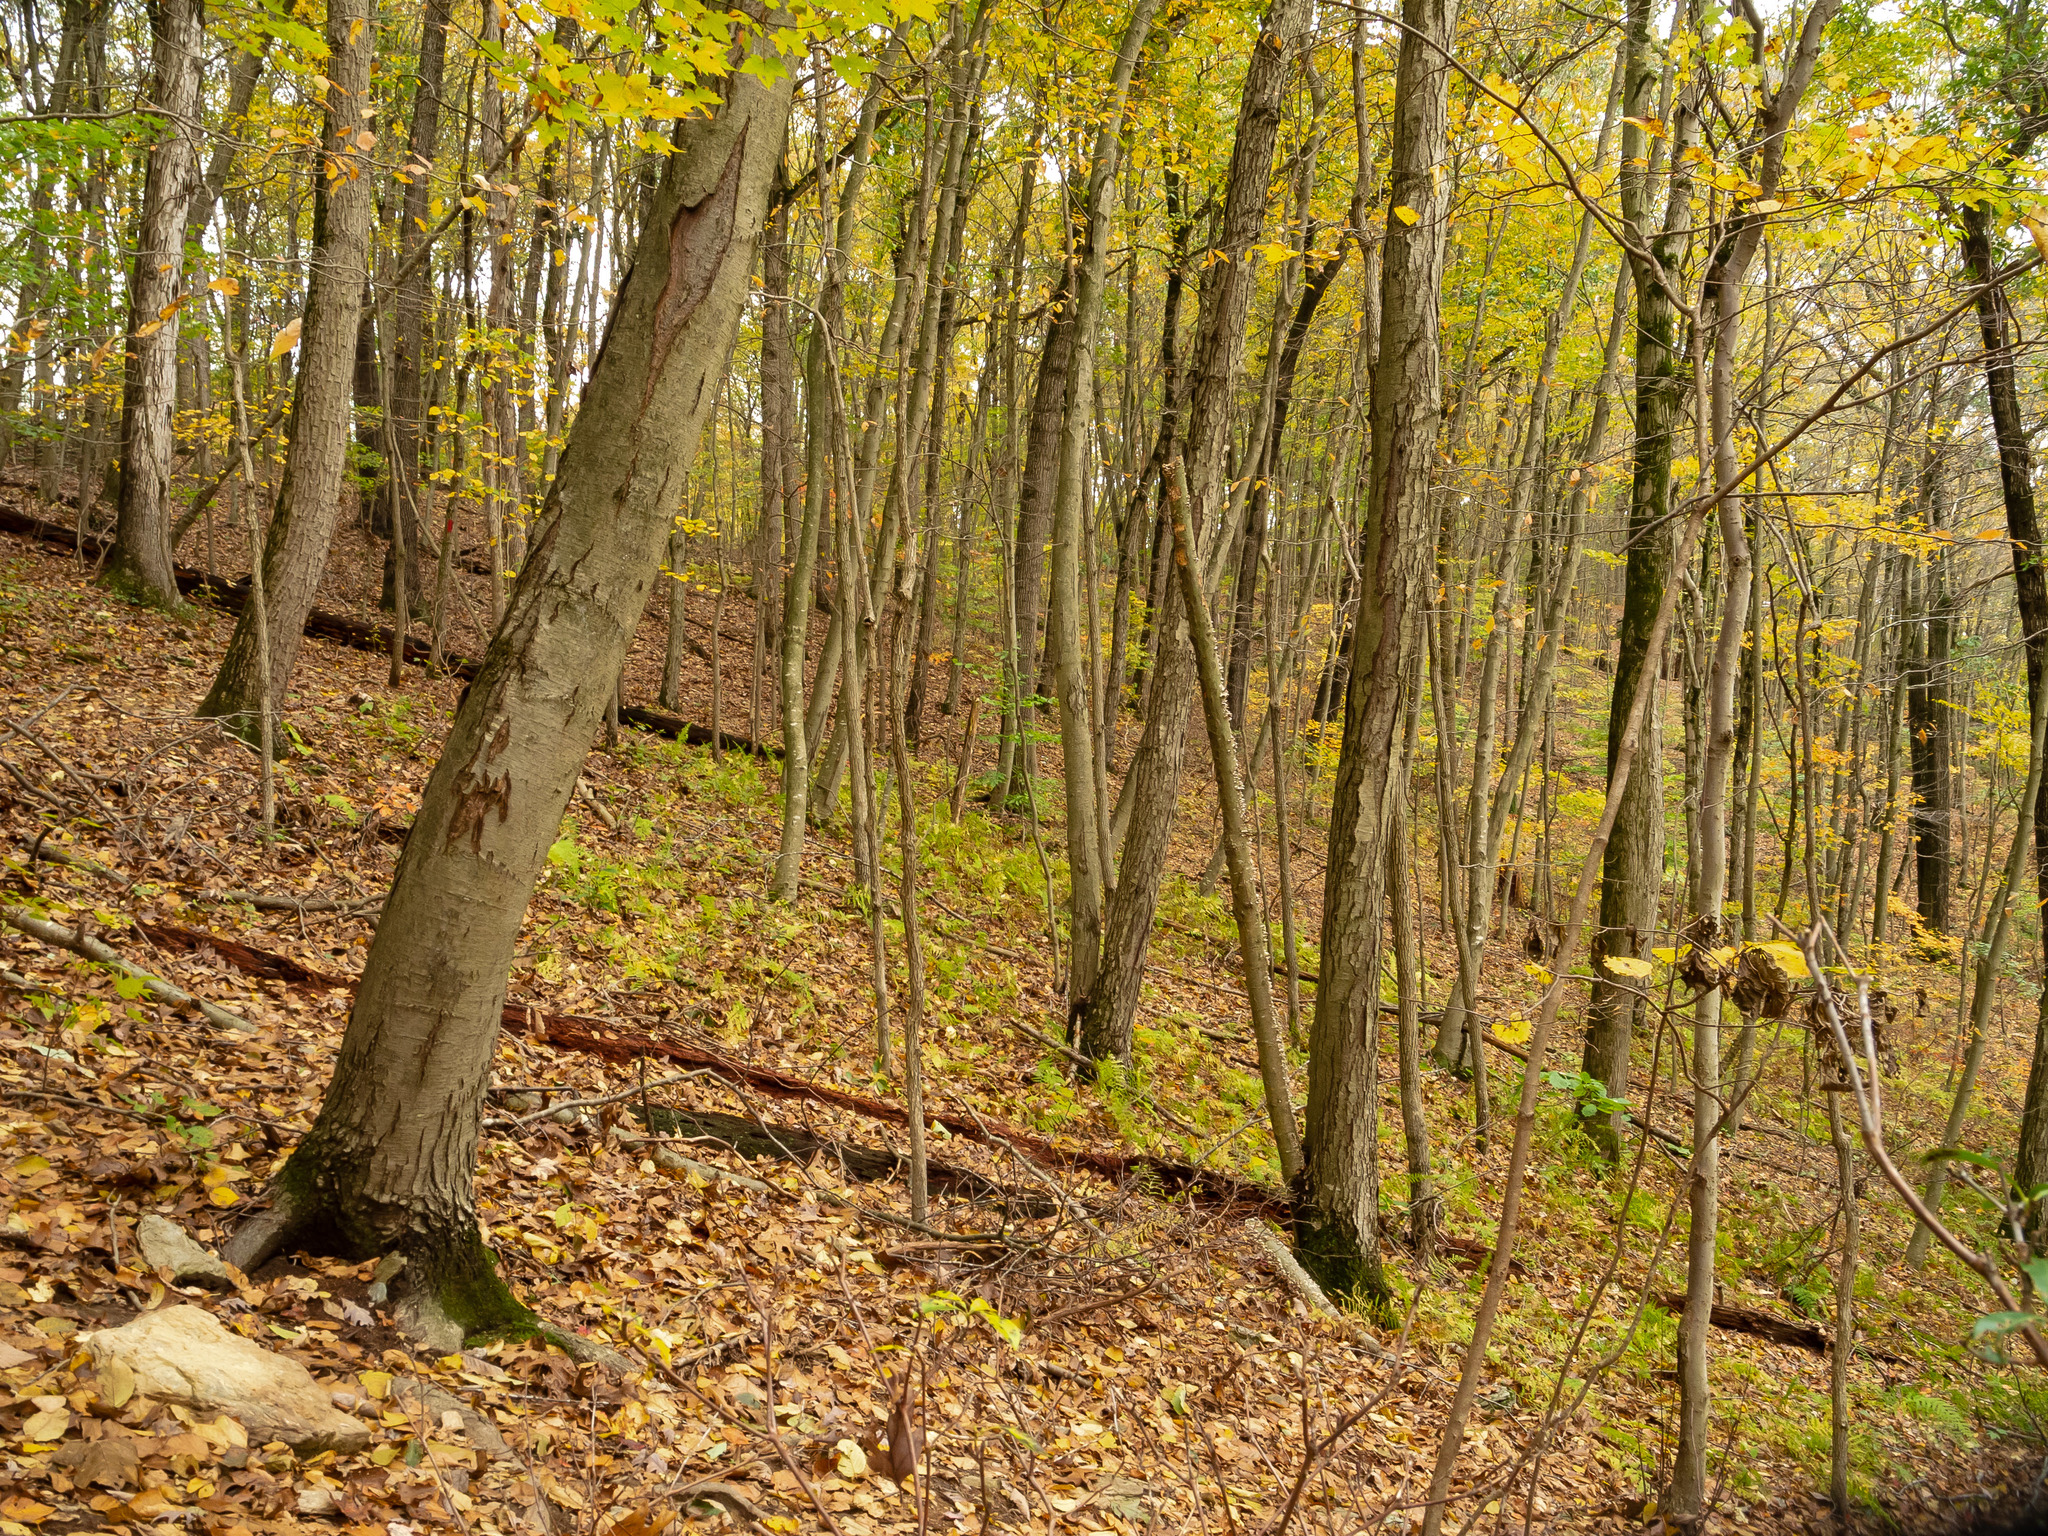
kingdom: Plantae
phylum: Tracheophyta
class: Magnoliopsida
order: Fagales
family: Betulaceae
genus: Betula
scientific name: Betula lenta
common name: Black birch
